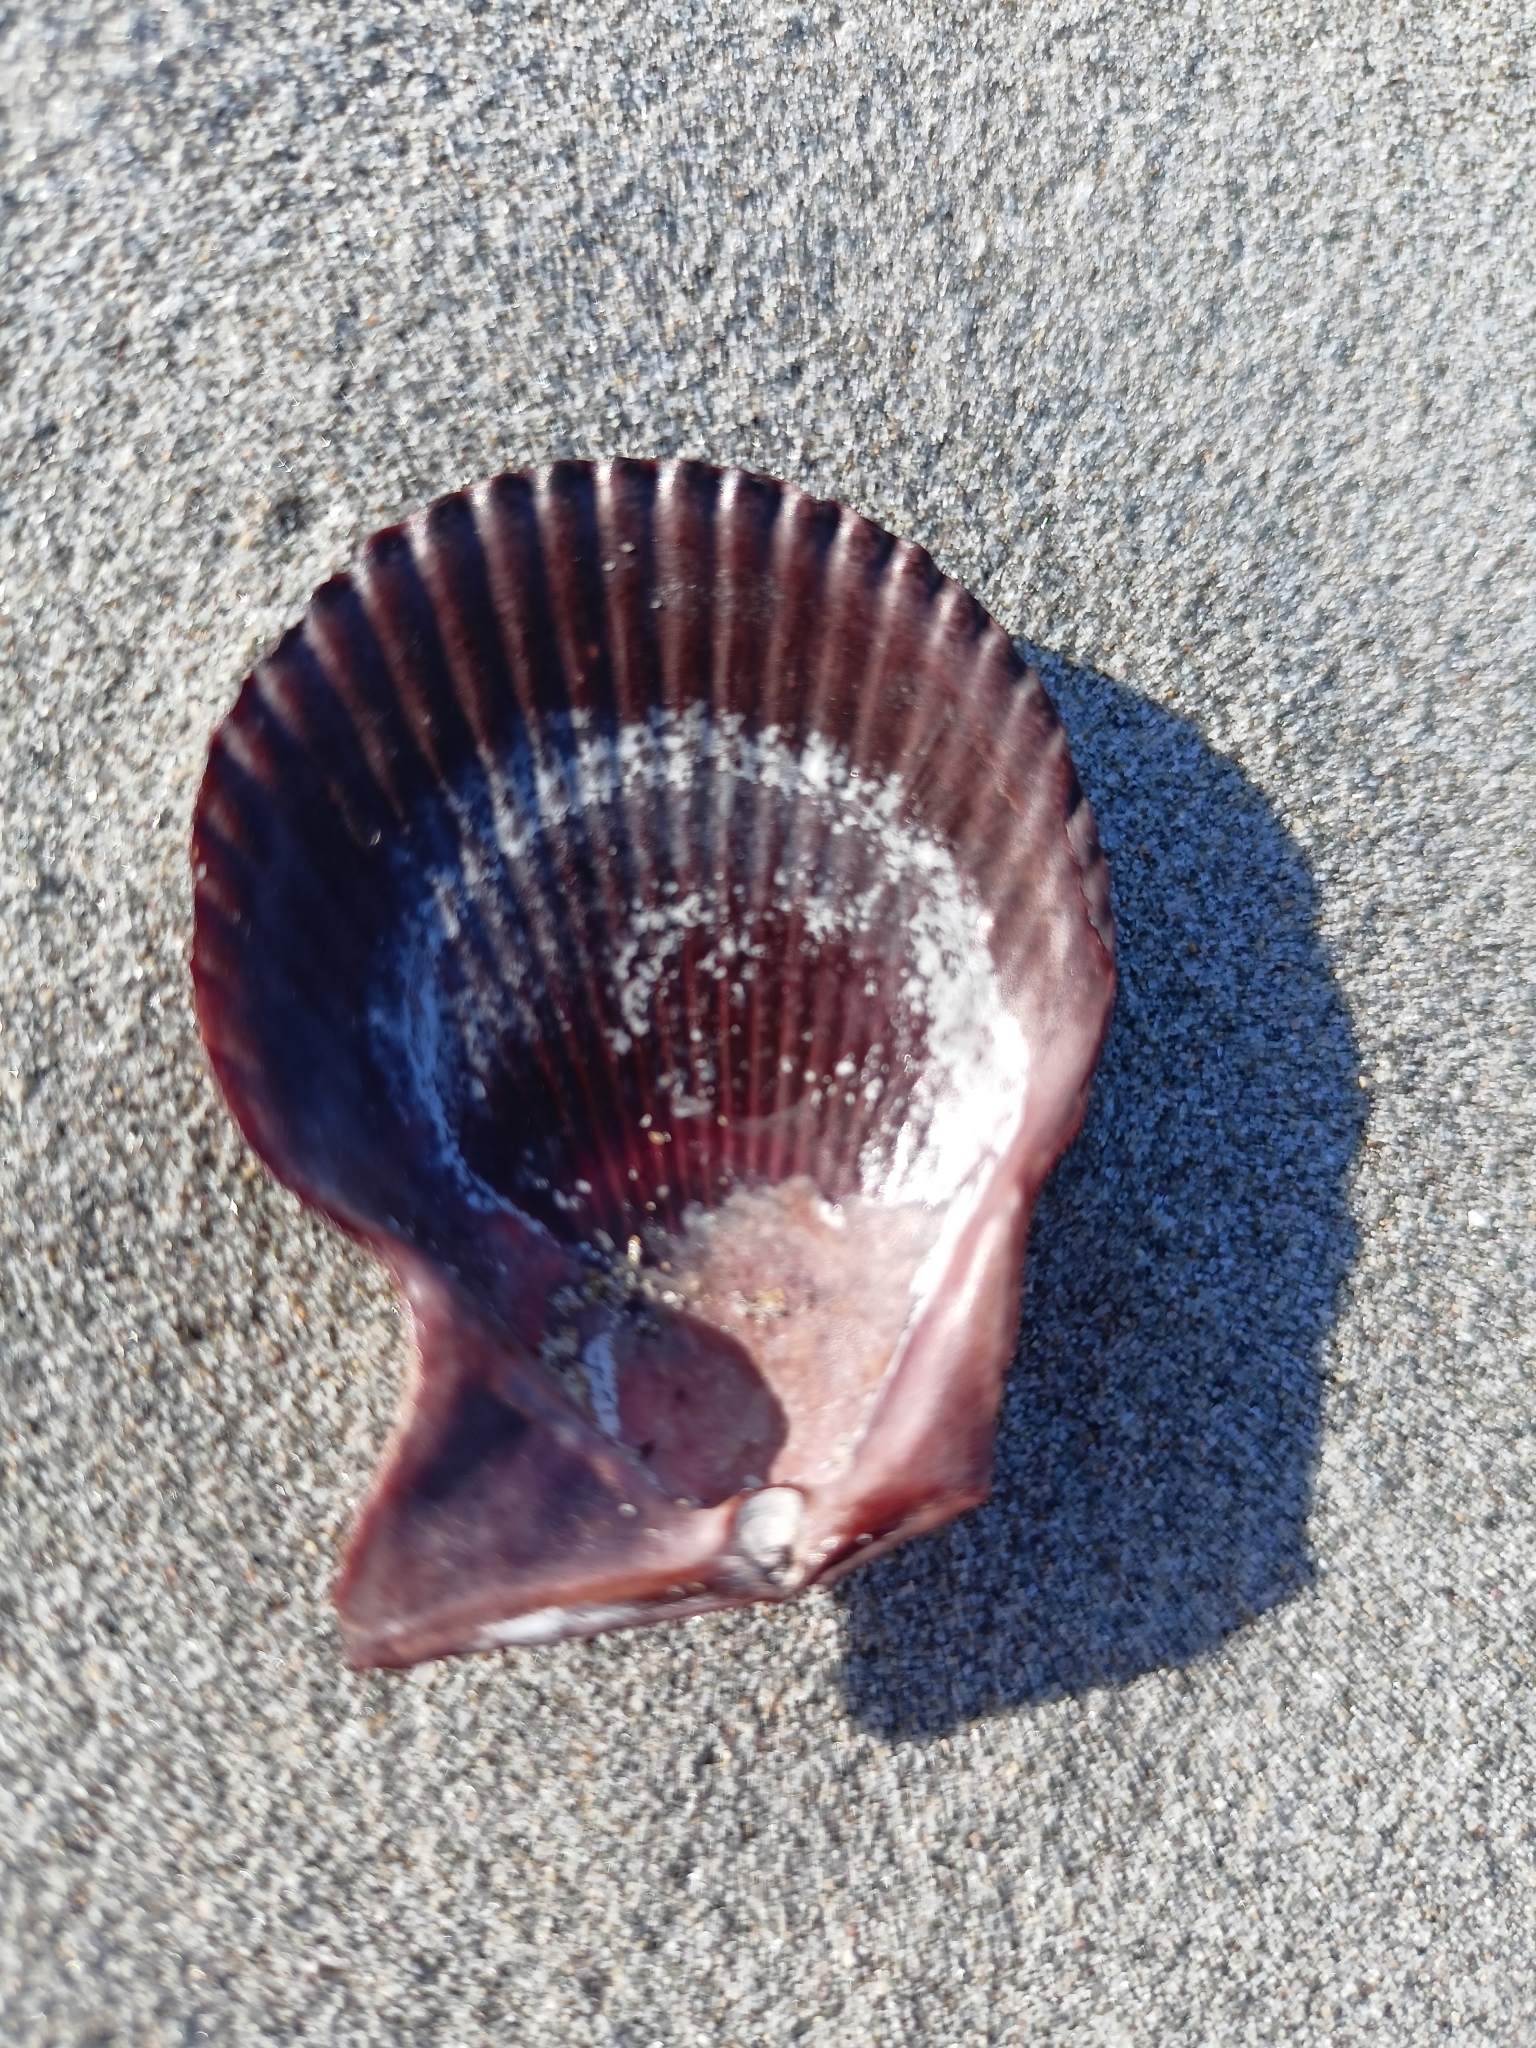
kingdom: Animalia
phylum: Mollusca
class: Bivalvia
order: Pectinida
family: Pectinidae
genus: Mimachlamys
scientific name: Mimachlamys varia
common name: Variegated scallop
